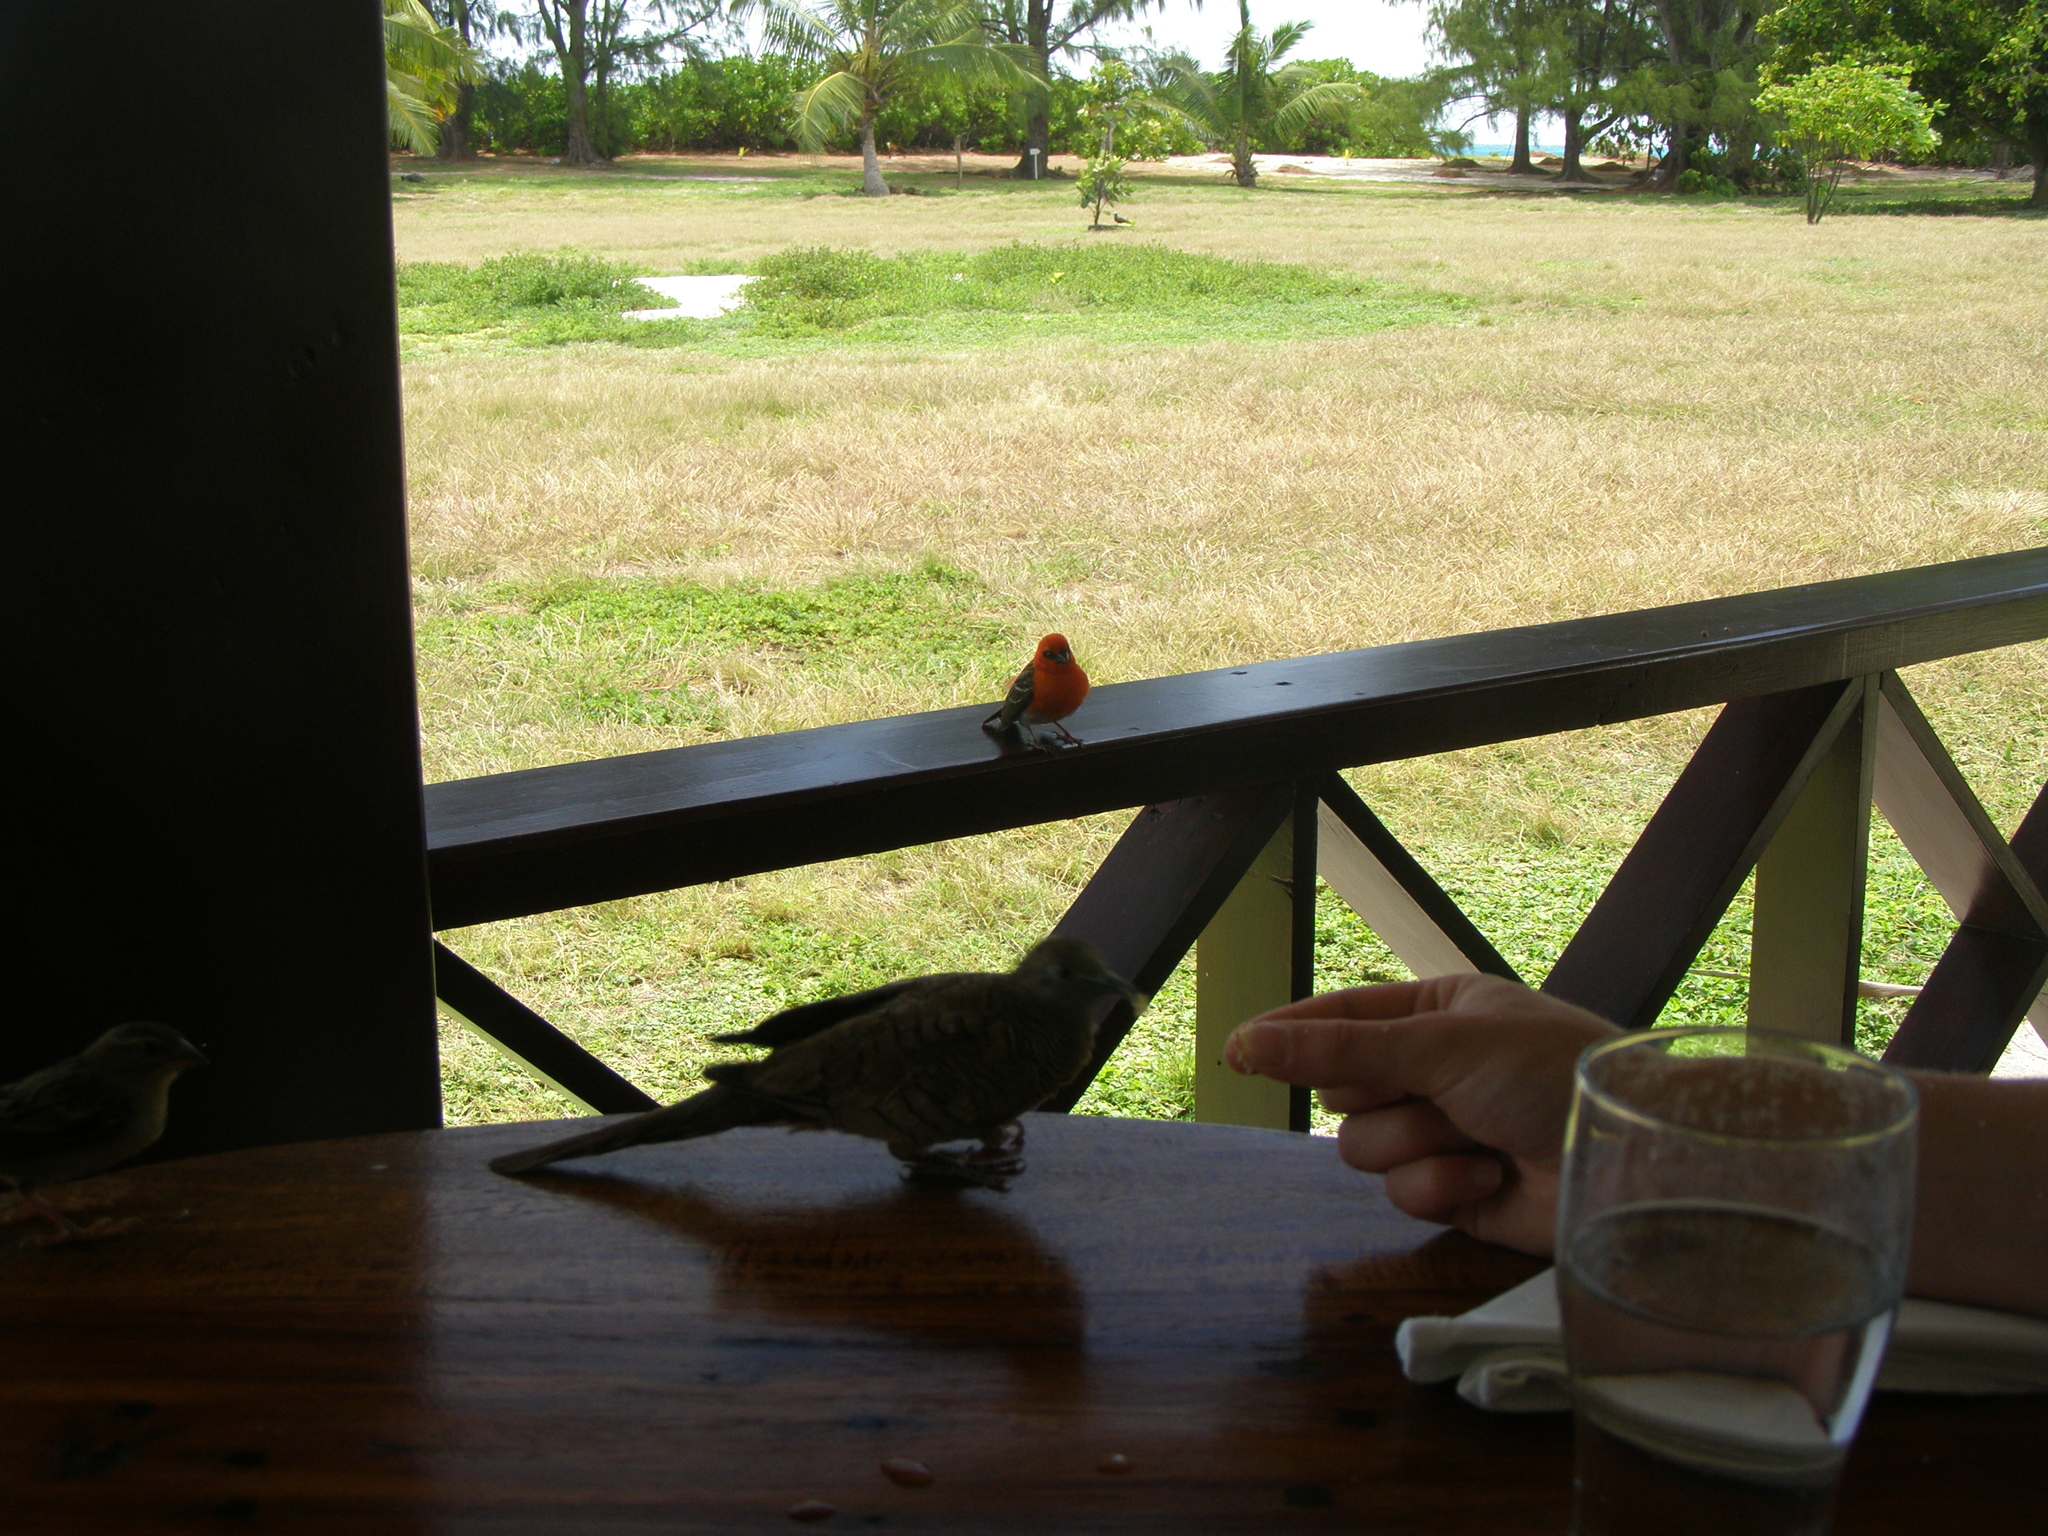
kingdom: Animalia
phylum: Chordata
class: Aves
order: Passeriformes
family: Ploceidae
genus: Foudia
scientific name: Foudia madagascariensis
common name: Red fody
